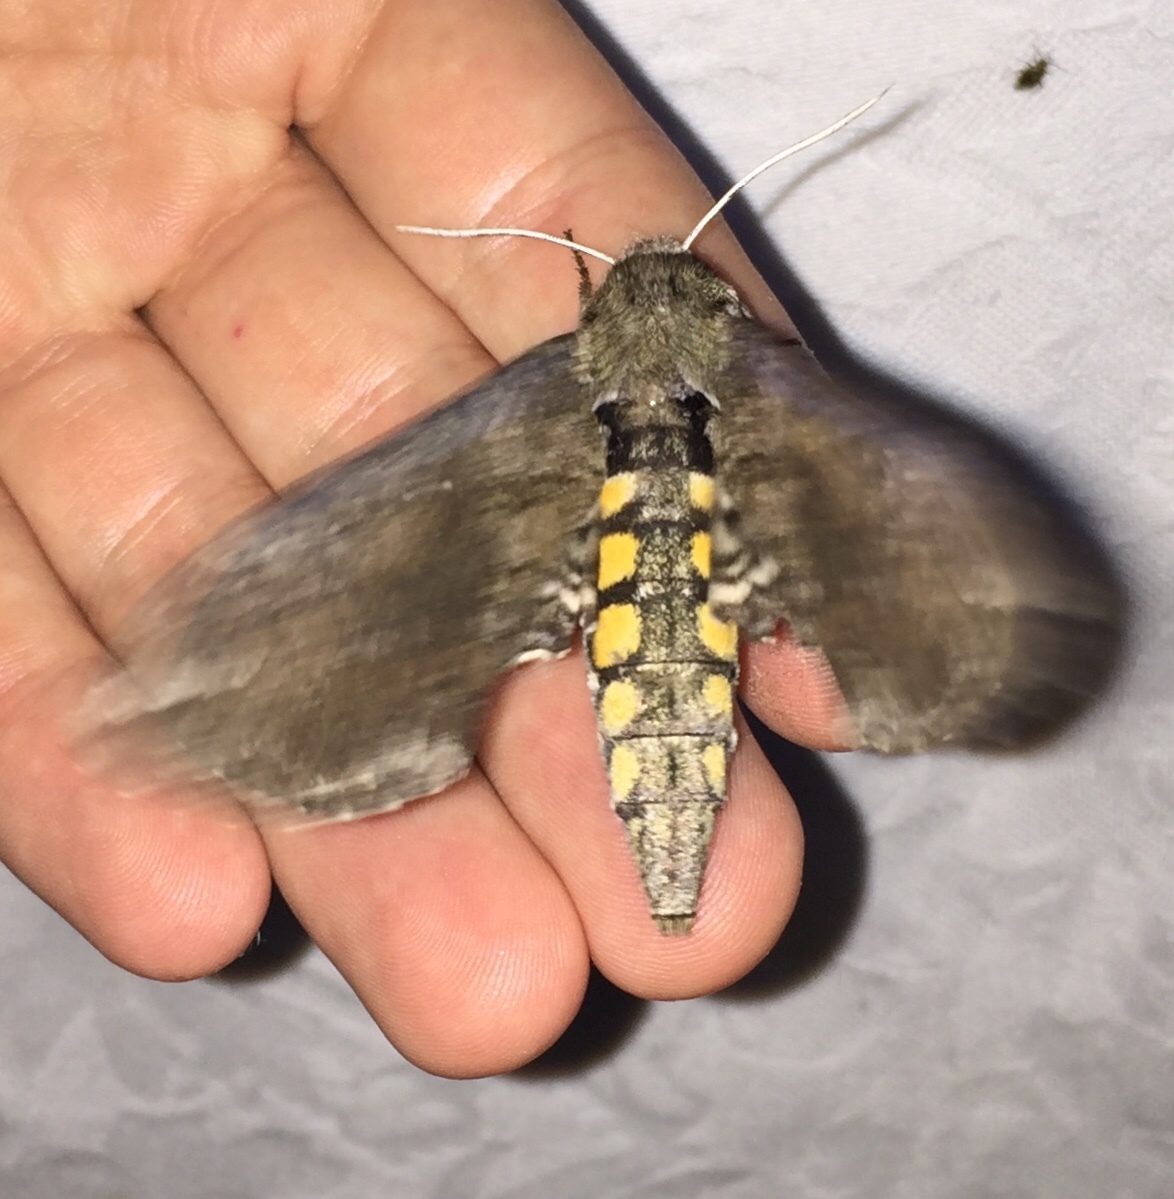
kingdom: Animalia
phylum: Arthropoda
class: Insecta
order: Lepidoptera
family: Sphingidae
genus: Manduca
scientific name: Manduca sexta
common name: Carolina sphinx
